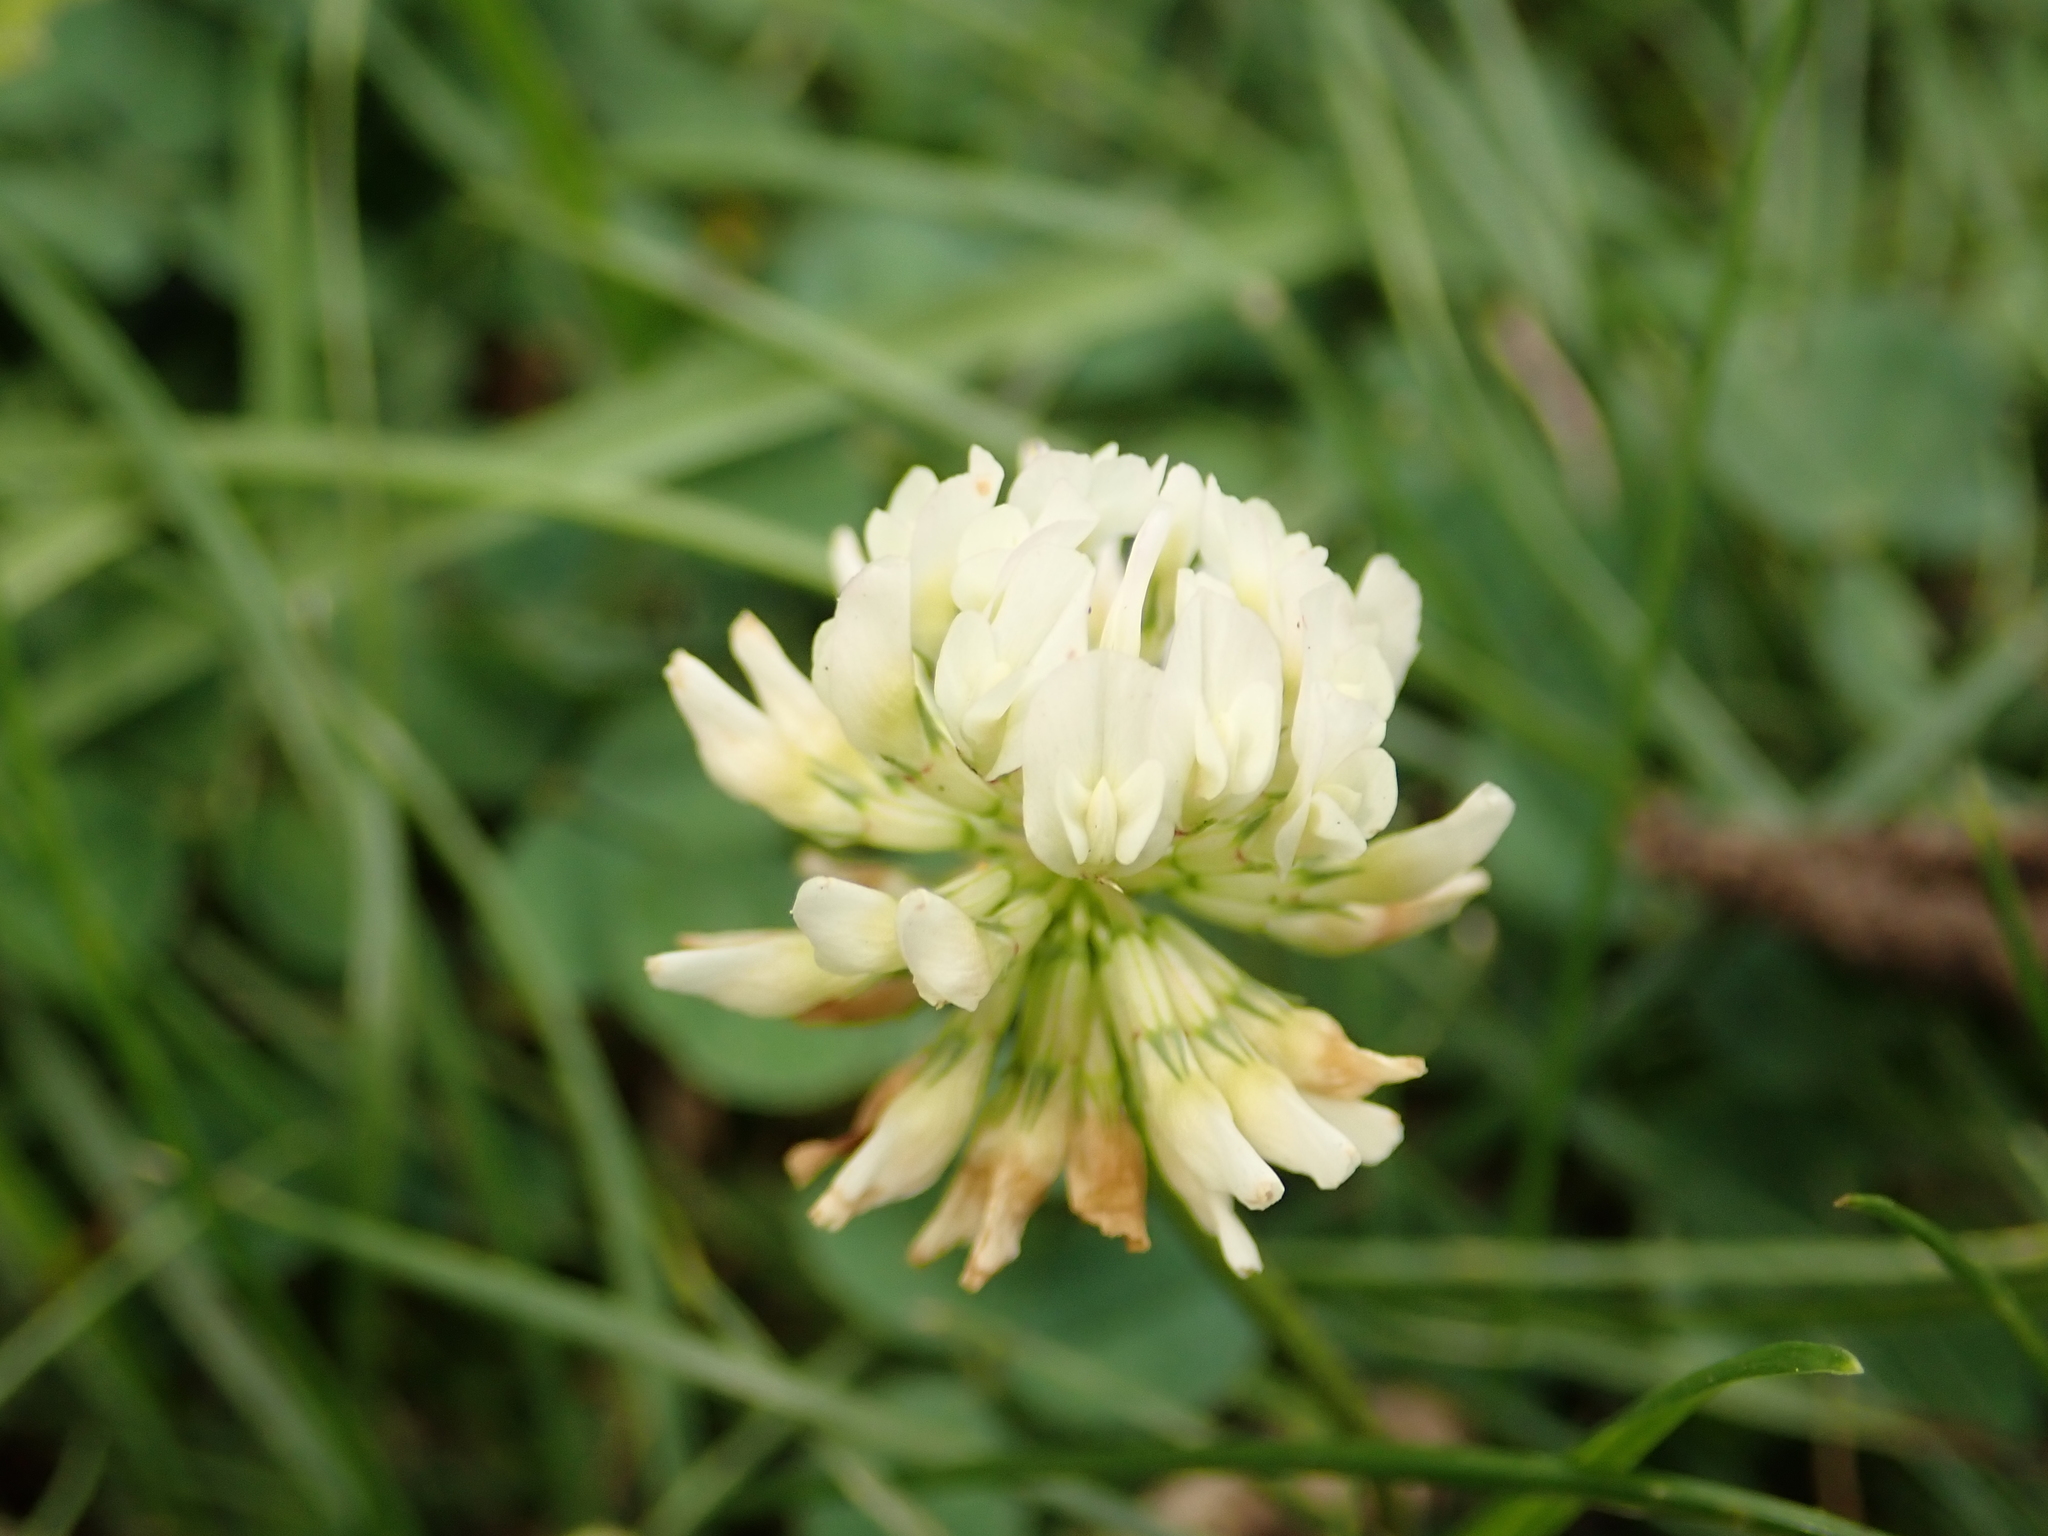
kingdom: Plantae
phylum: Tracheophyta
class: Magnoliopsida
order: Fabales
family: Fabaceae
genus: Trifolium
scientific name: Trifolium repens
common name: White clover
